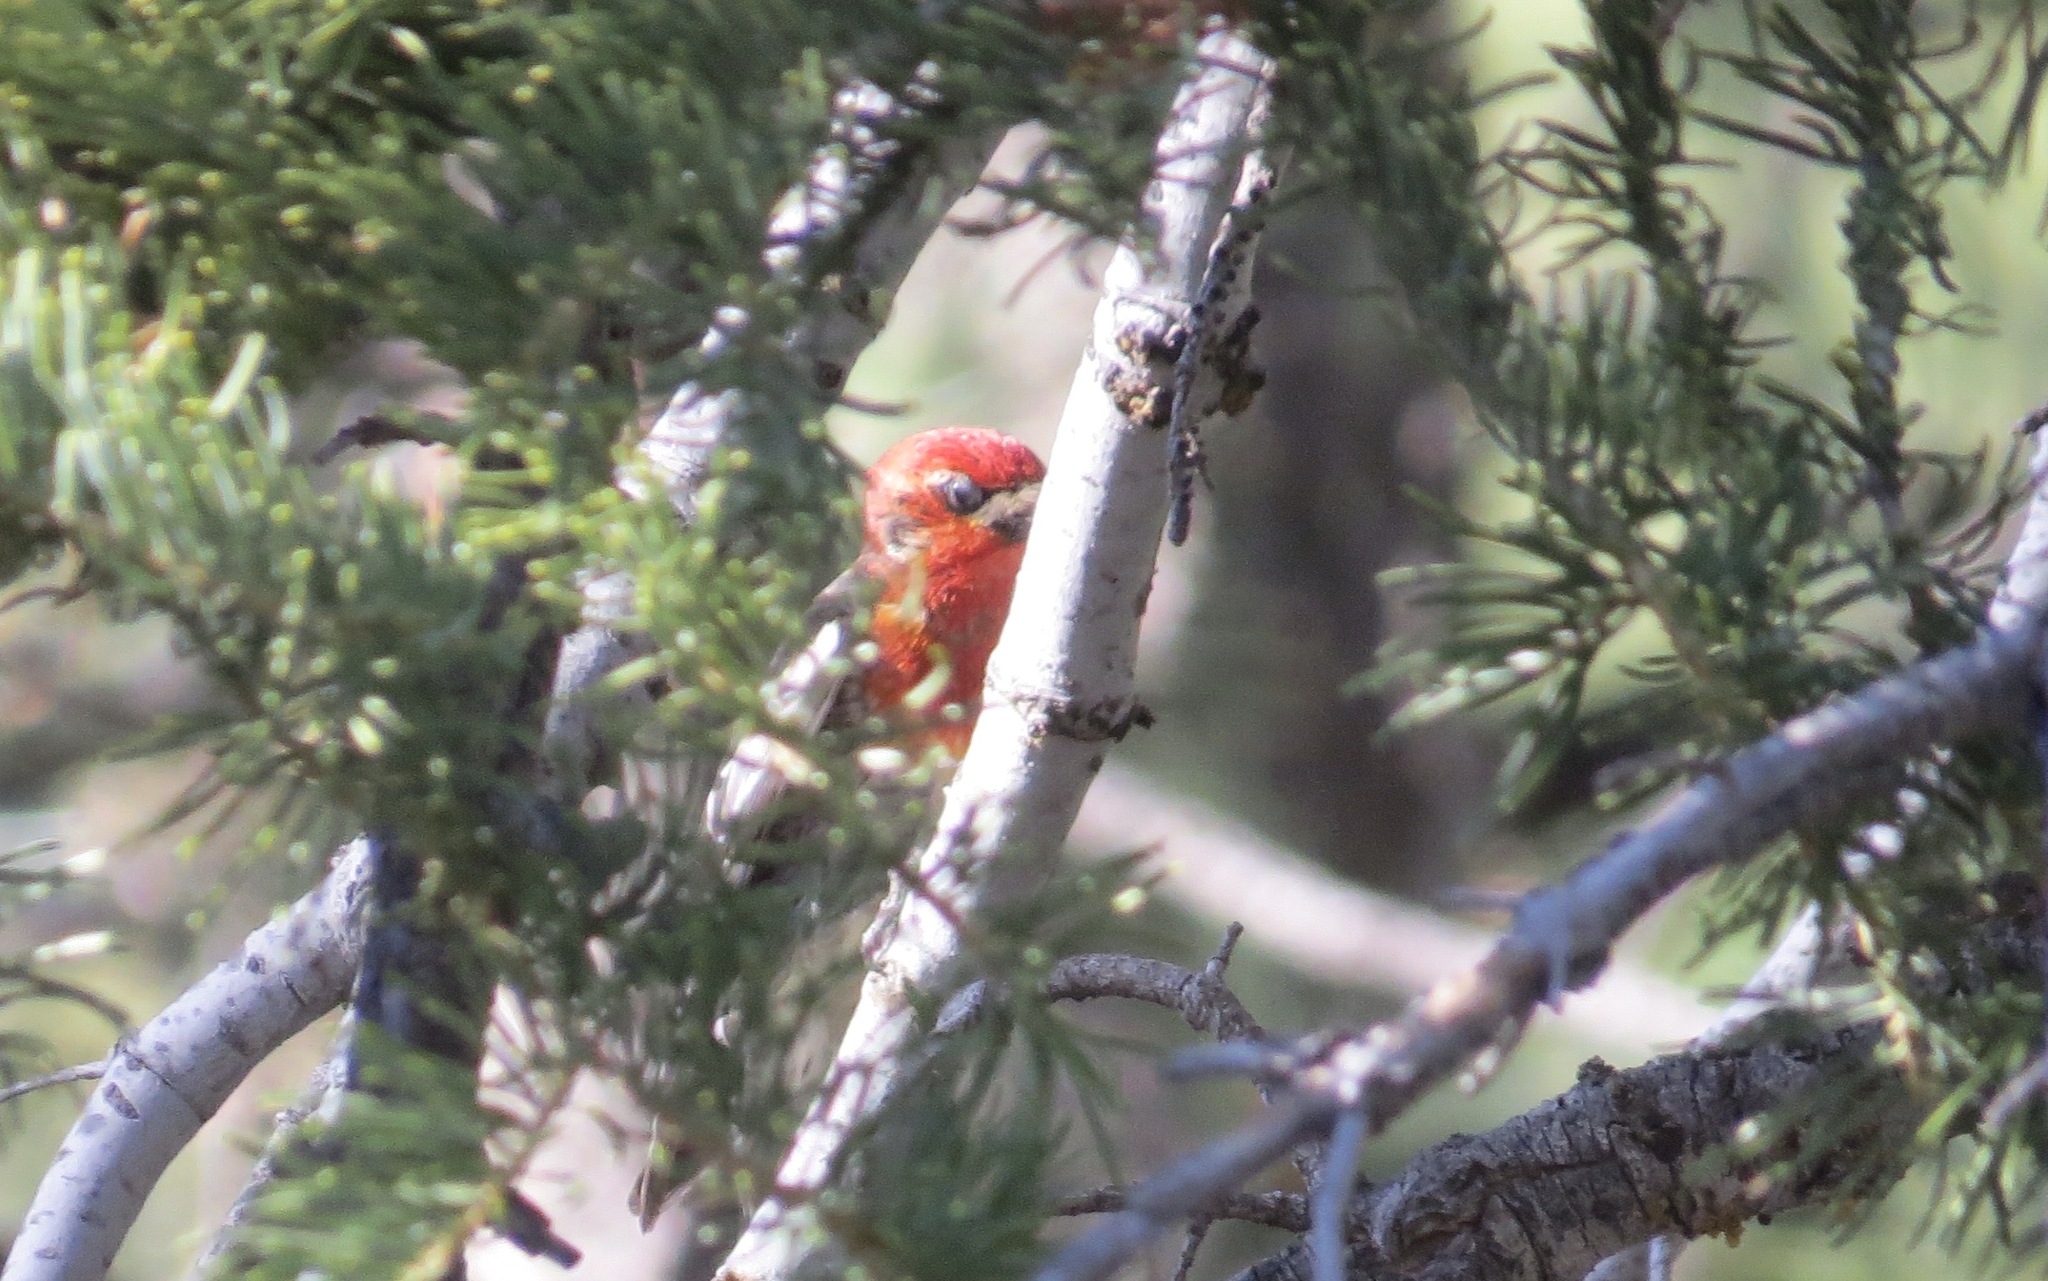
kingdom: Animalia
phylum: Chordata
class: Aves
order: Piciformes
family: Picidae
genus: Sphyrapicus
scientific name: Sphyrapicus ruber
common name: Red-breasted sapsucker
